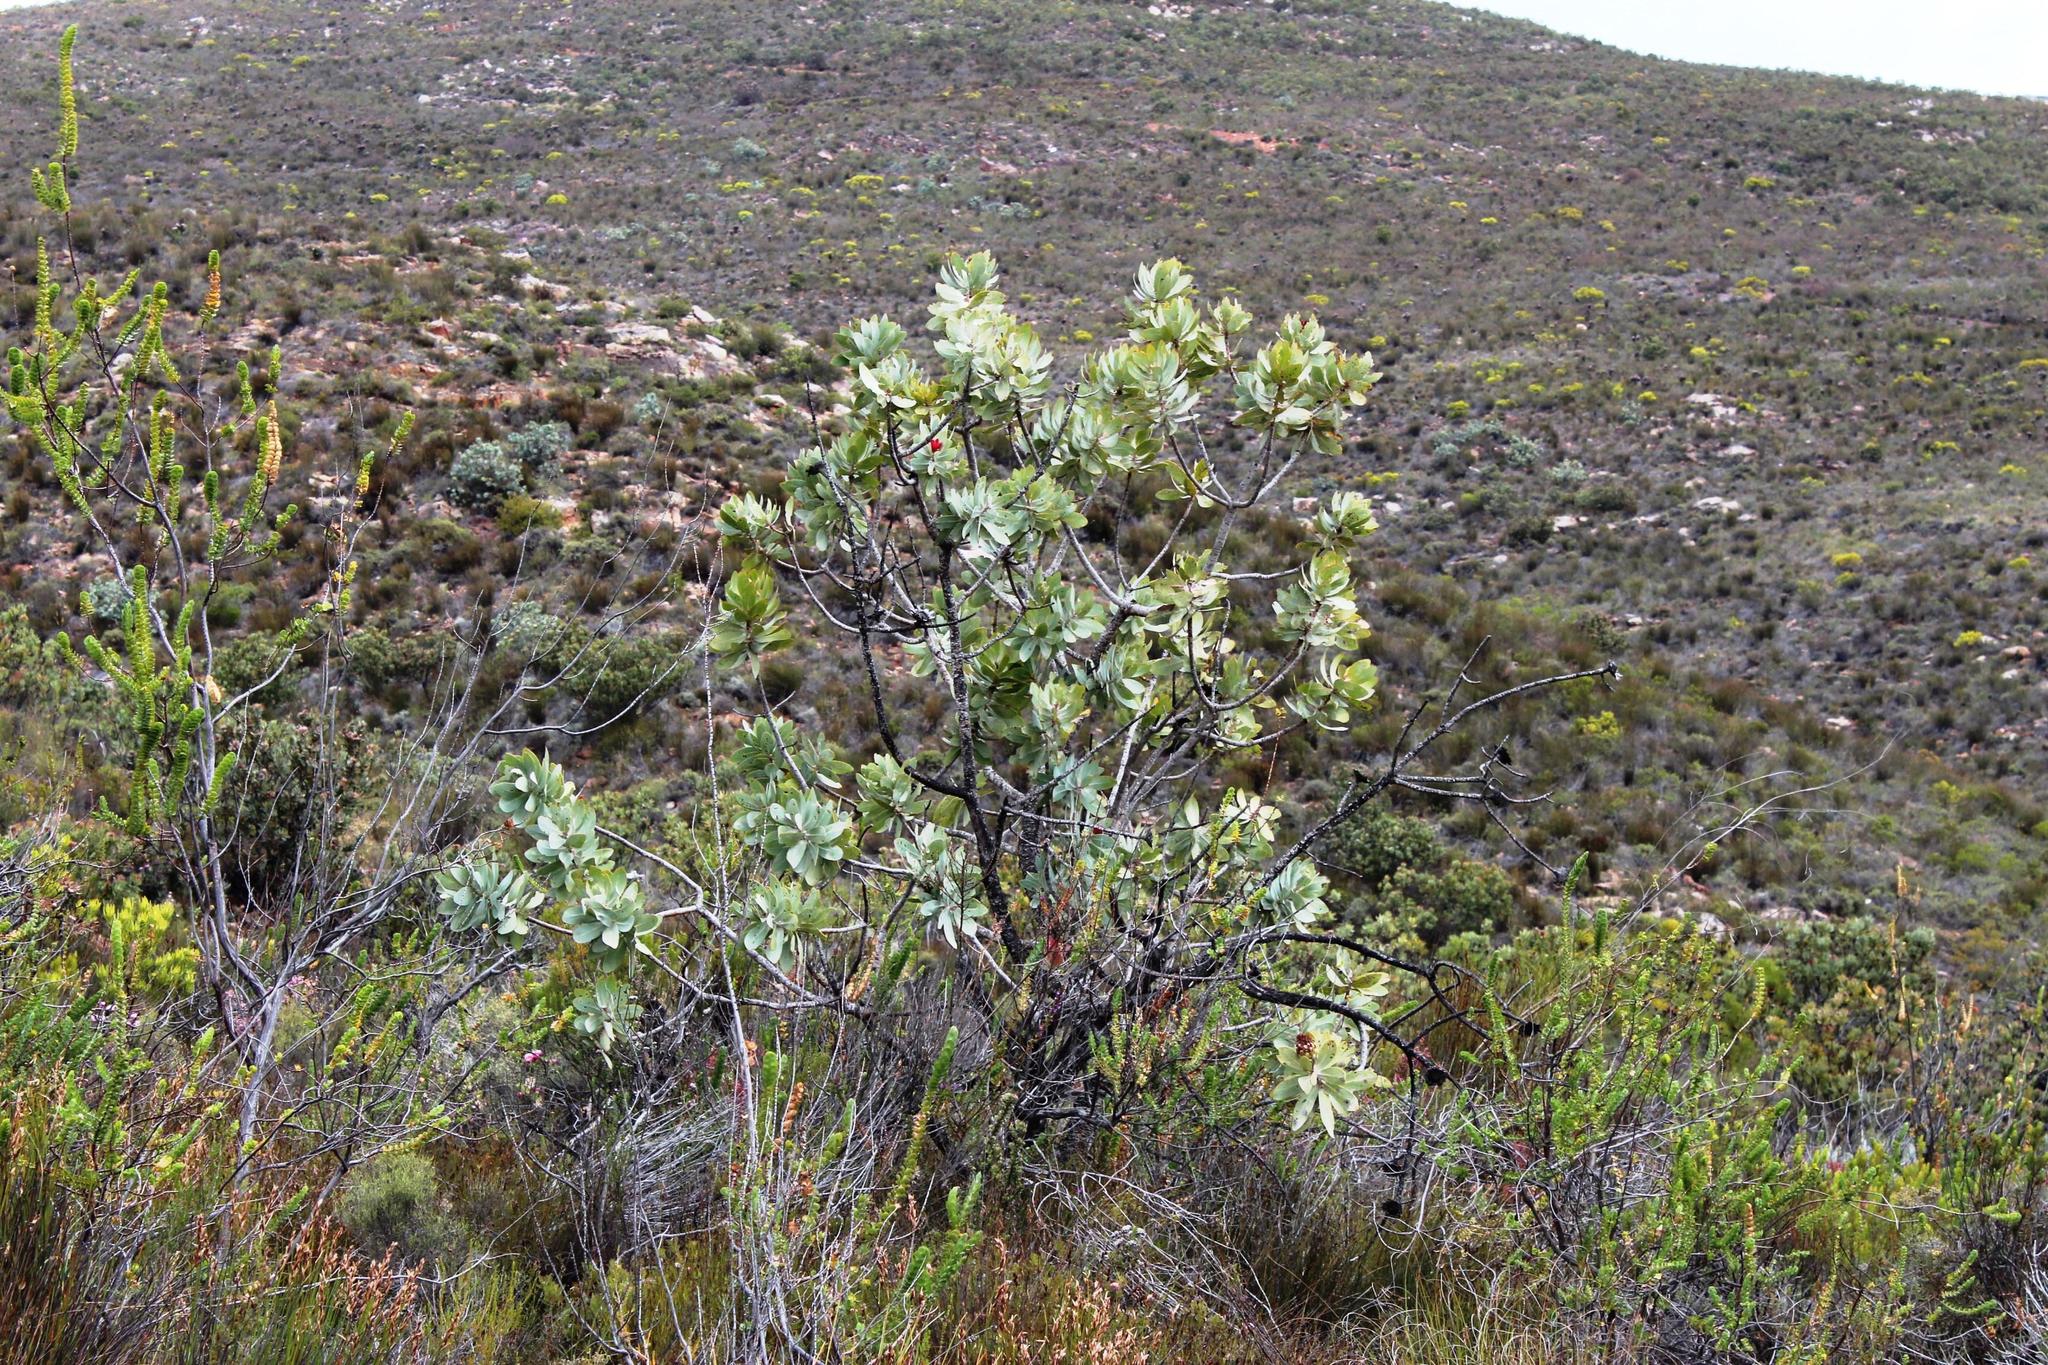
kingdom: Plantae
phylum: Tracheophyta
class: Magnoliopsida
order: Proteales
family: Proteaceae
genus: Protea
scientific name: Protea nitida
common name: Tree protea
